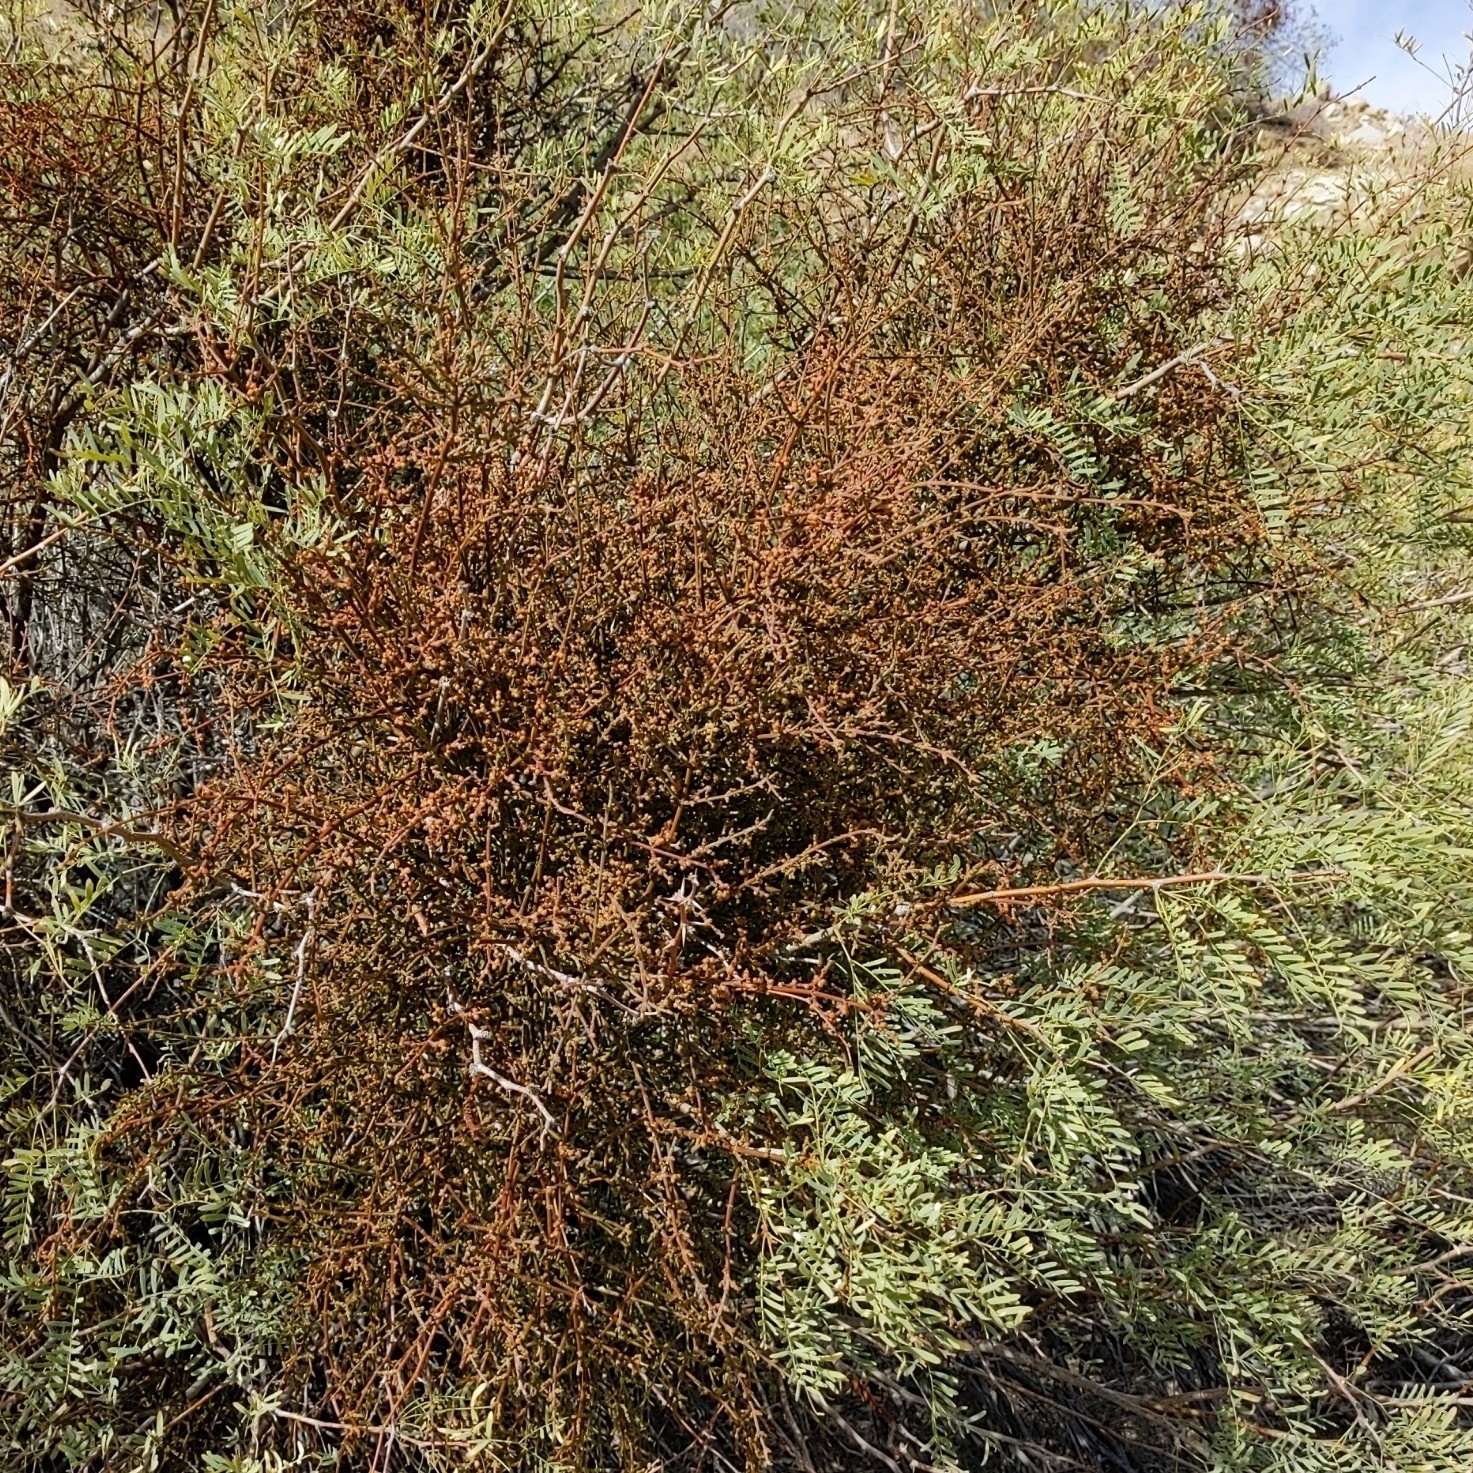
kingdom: Plantae
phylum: Tracheophyta
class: Magnoliopsida
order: Santalales
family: Viscaceae
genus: Phoradendron
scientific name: Phoradendron californicum
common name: Acacia mistletoe
